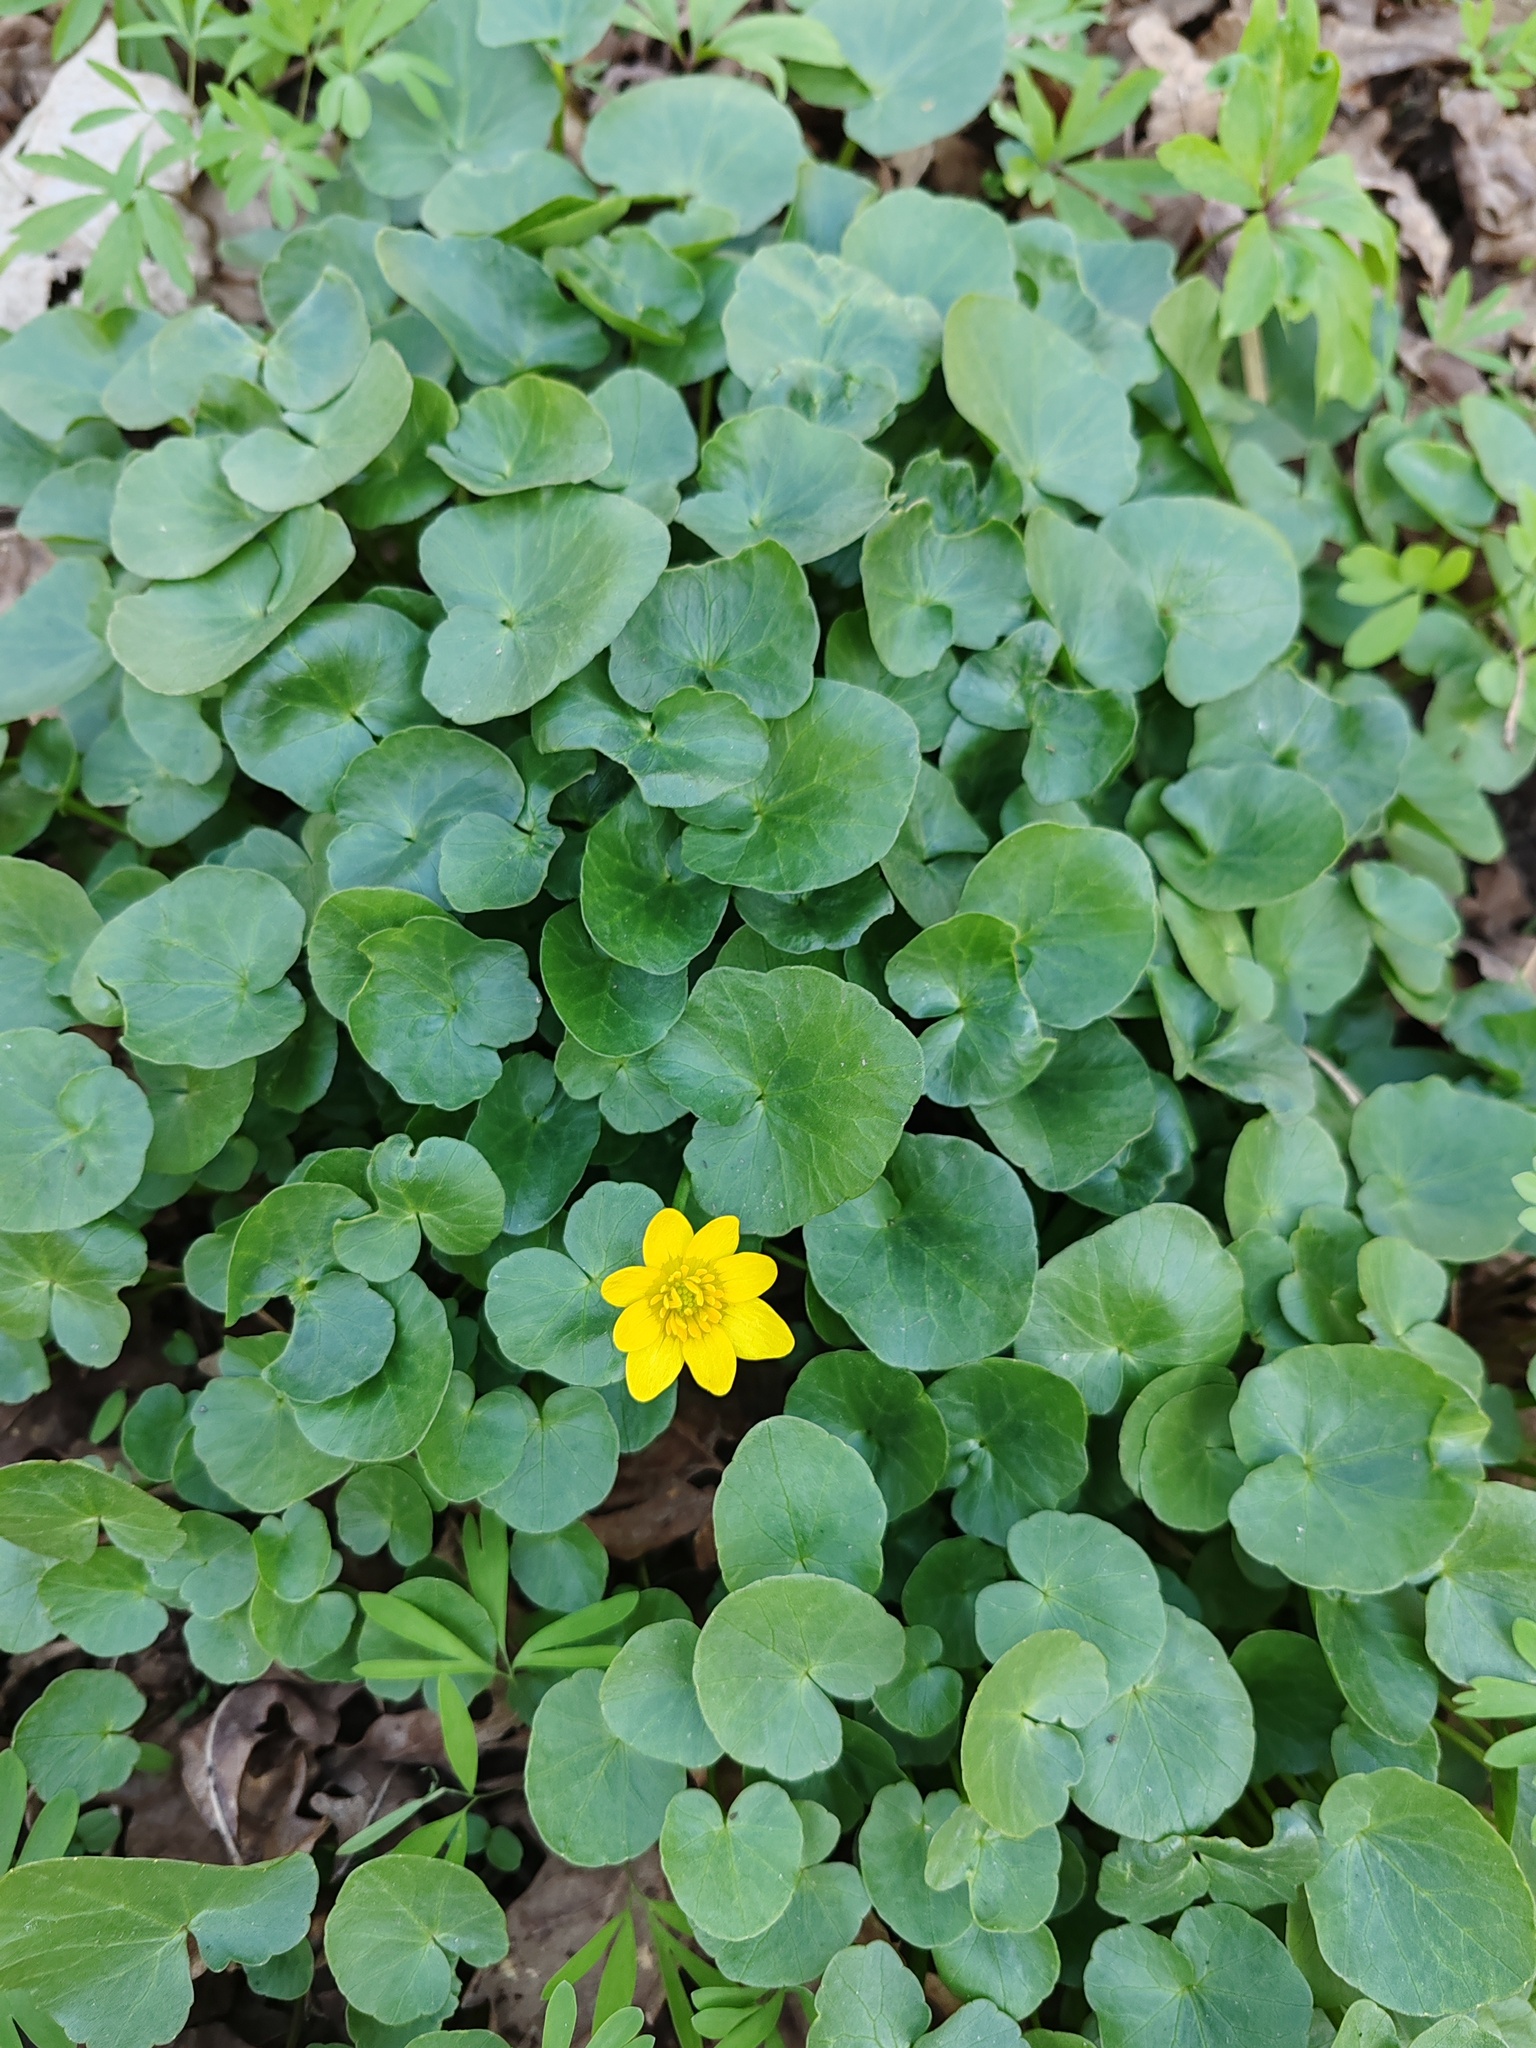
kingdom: Plantae
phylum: Tracheophyta
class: Magnoliopsida
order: Ranunculales
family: Ranunculaceae
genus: Ficaria
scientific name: Ficaria verna
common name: Lesser celandine
